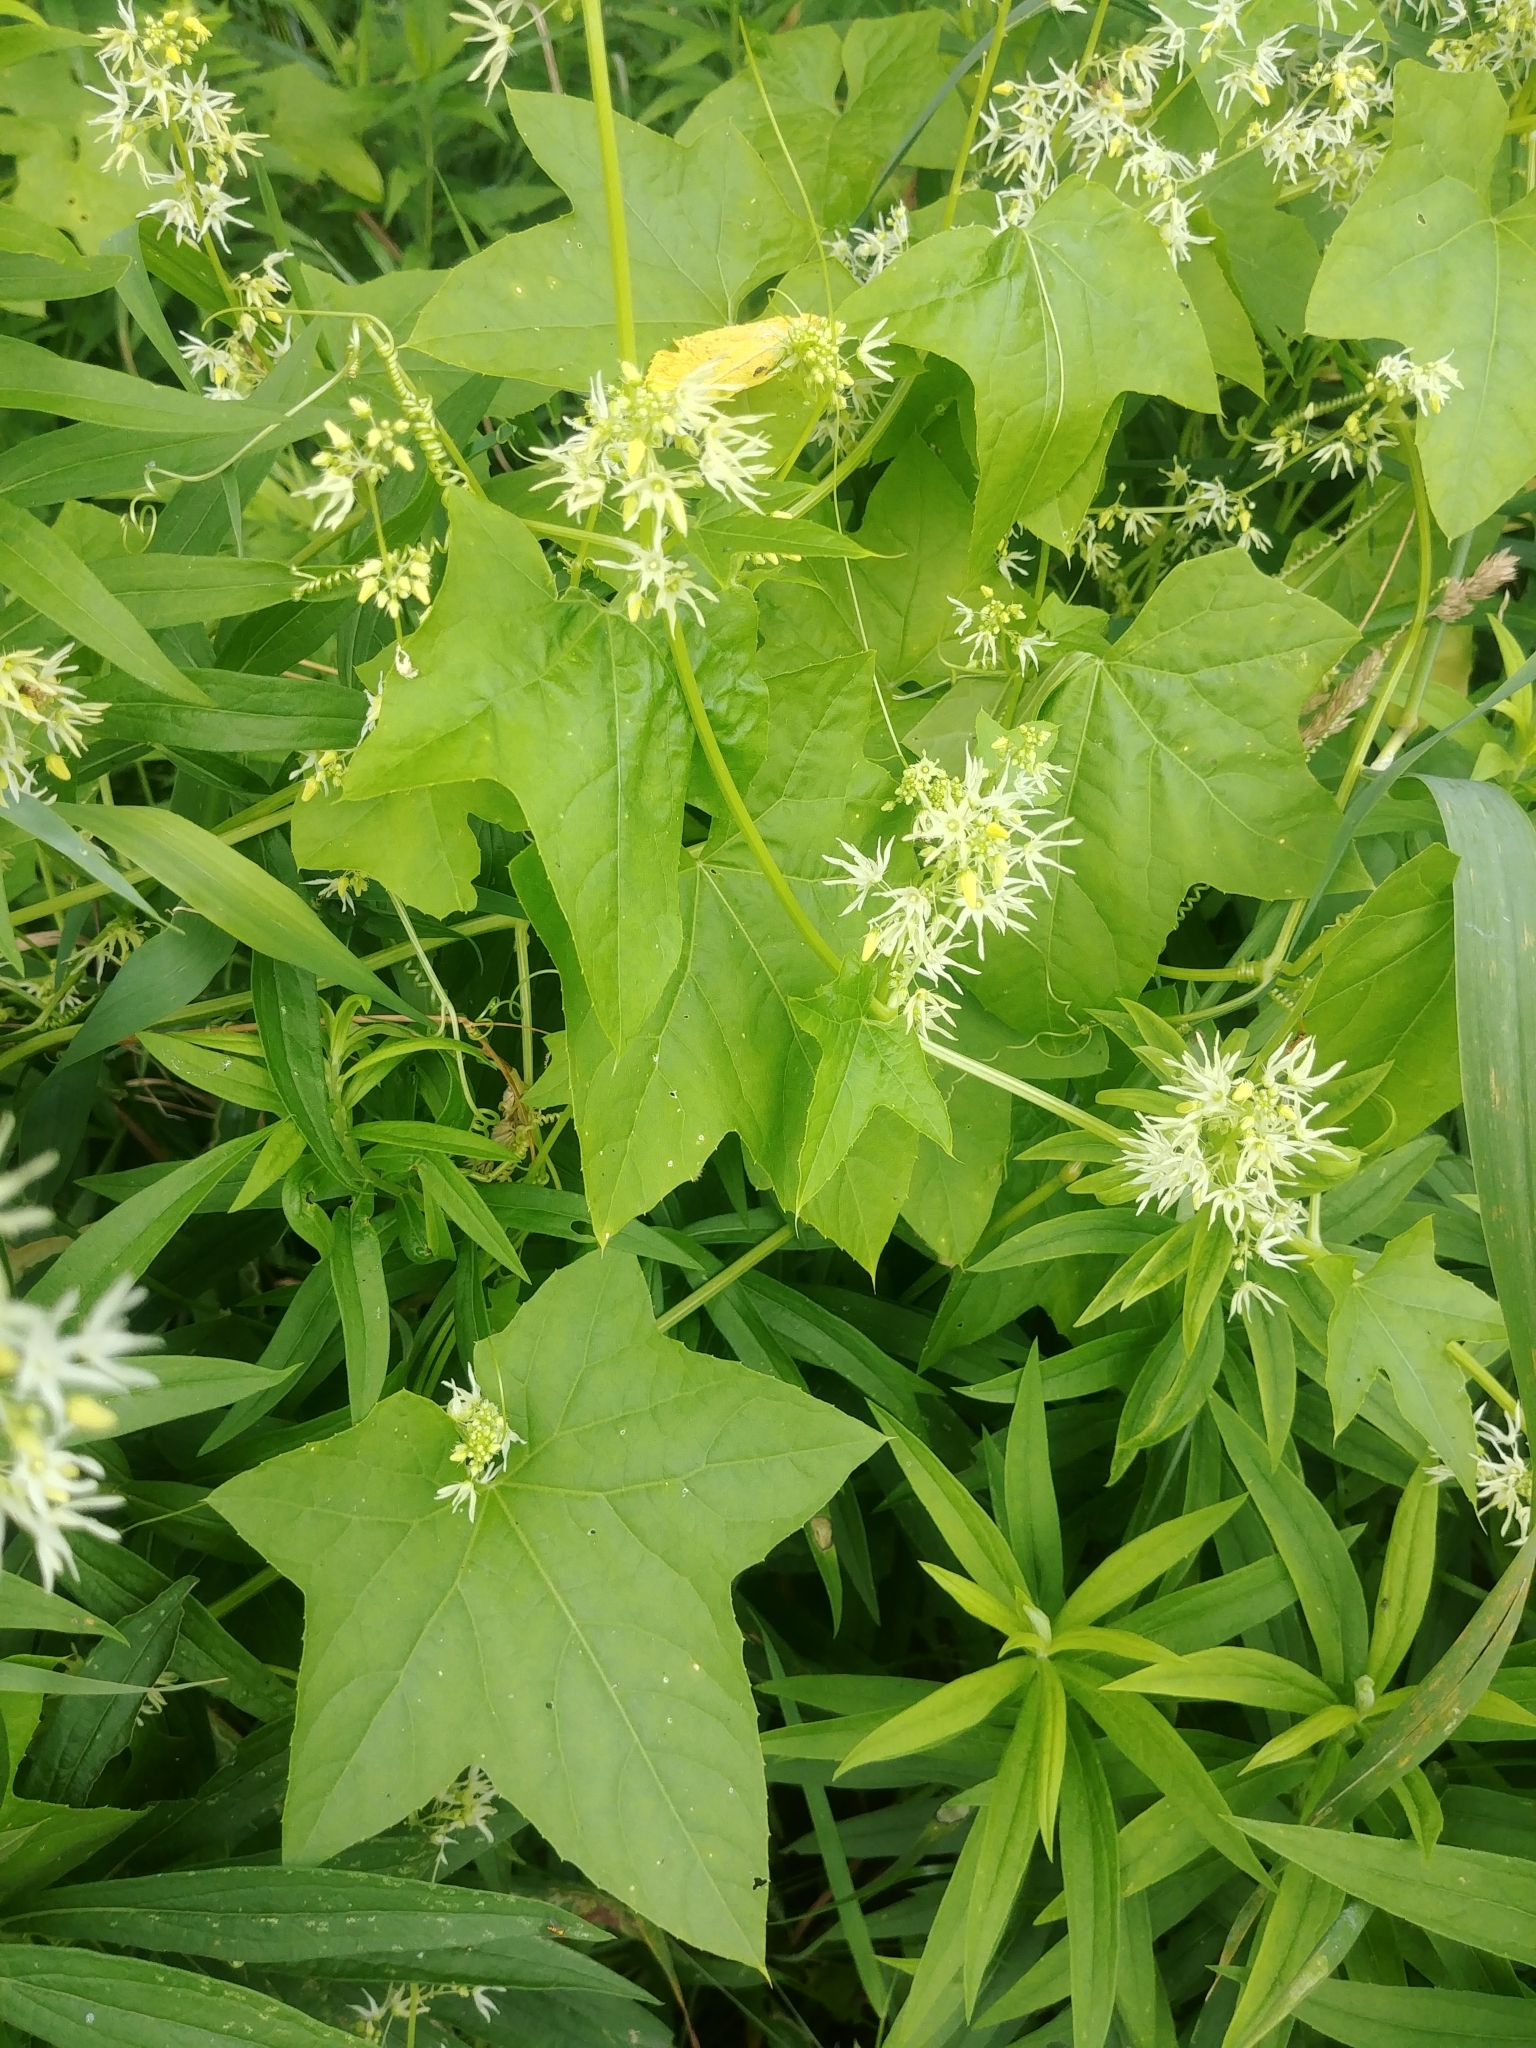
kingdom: Plantae
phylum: Tracheophyta
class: Magnoliopsida
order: Cucurbitales
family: Cucurbitaceae
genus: Echinocystis
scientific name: Echinocystis lobata
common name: Wild cucumber
